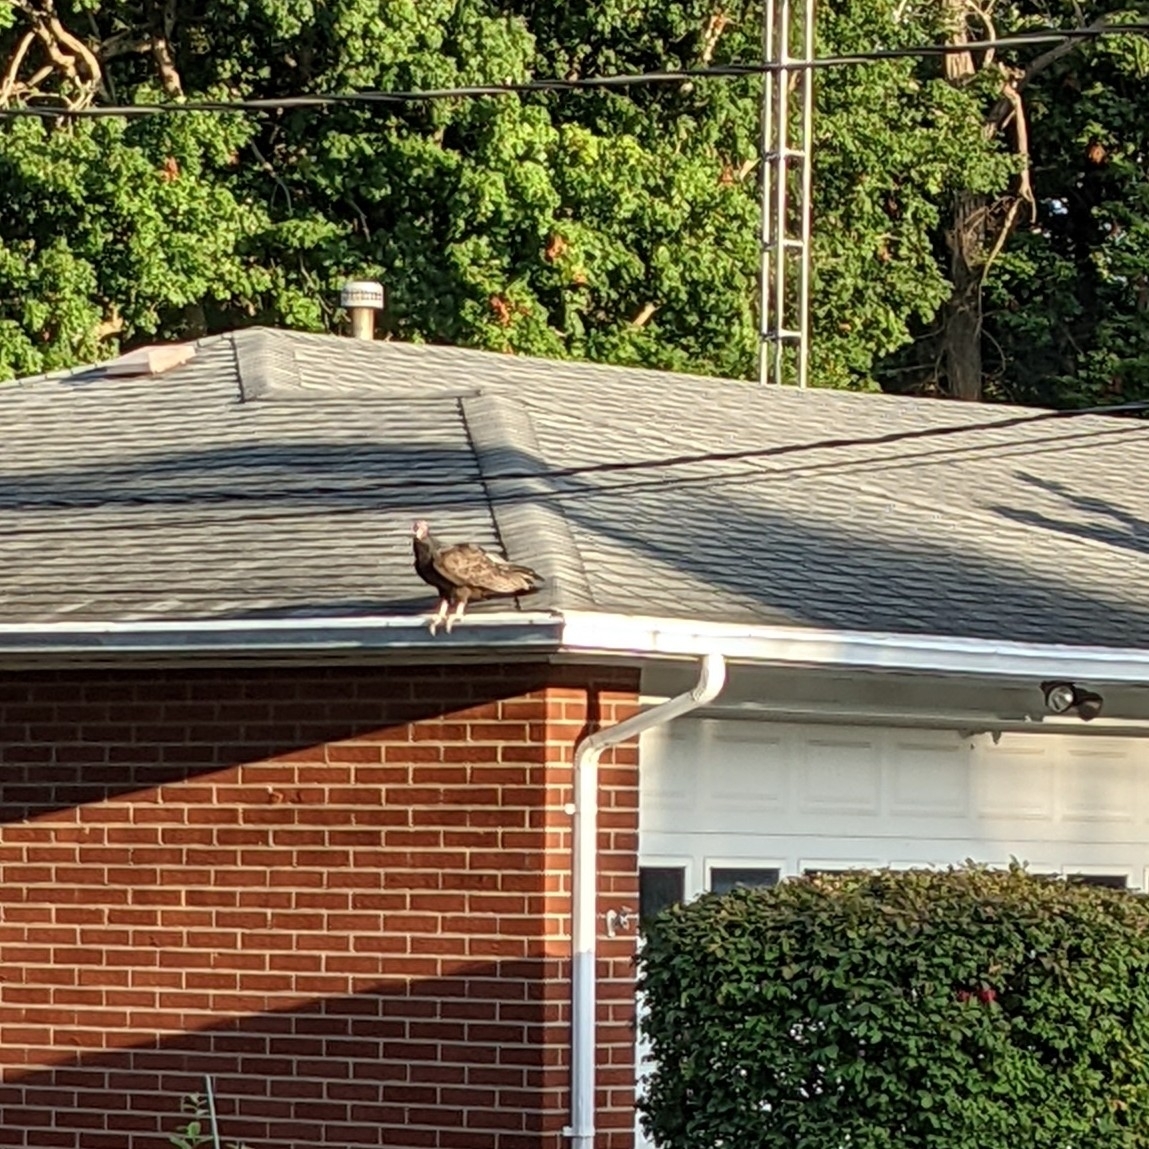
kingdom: Animalia
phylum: Chordata
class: Aves
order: Accipitriformes
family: Cathartidae
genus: Cathartes
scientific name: Cathartes aura
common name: Turkey vulture
